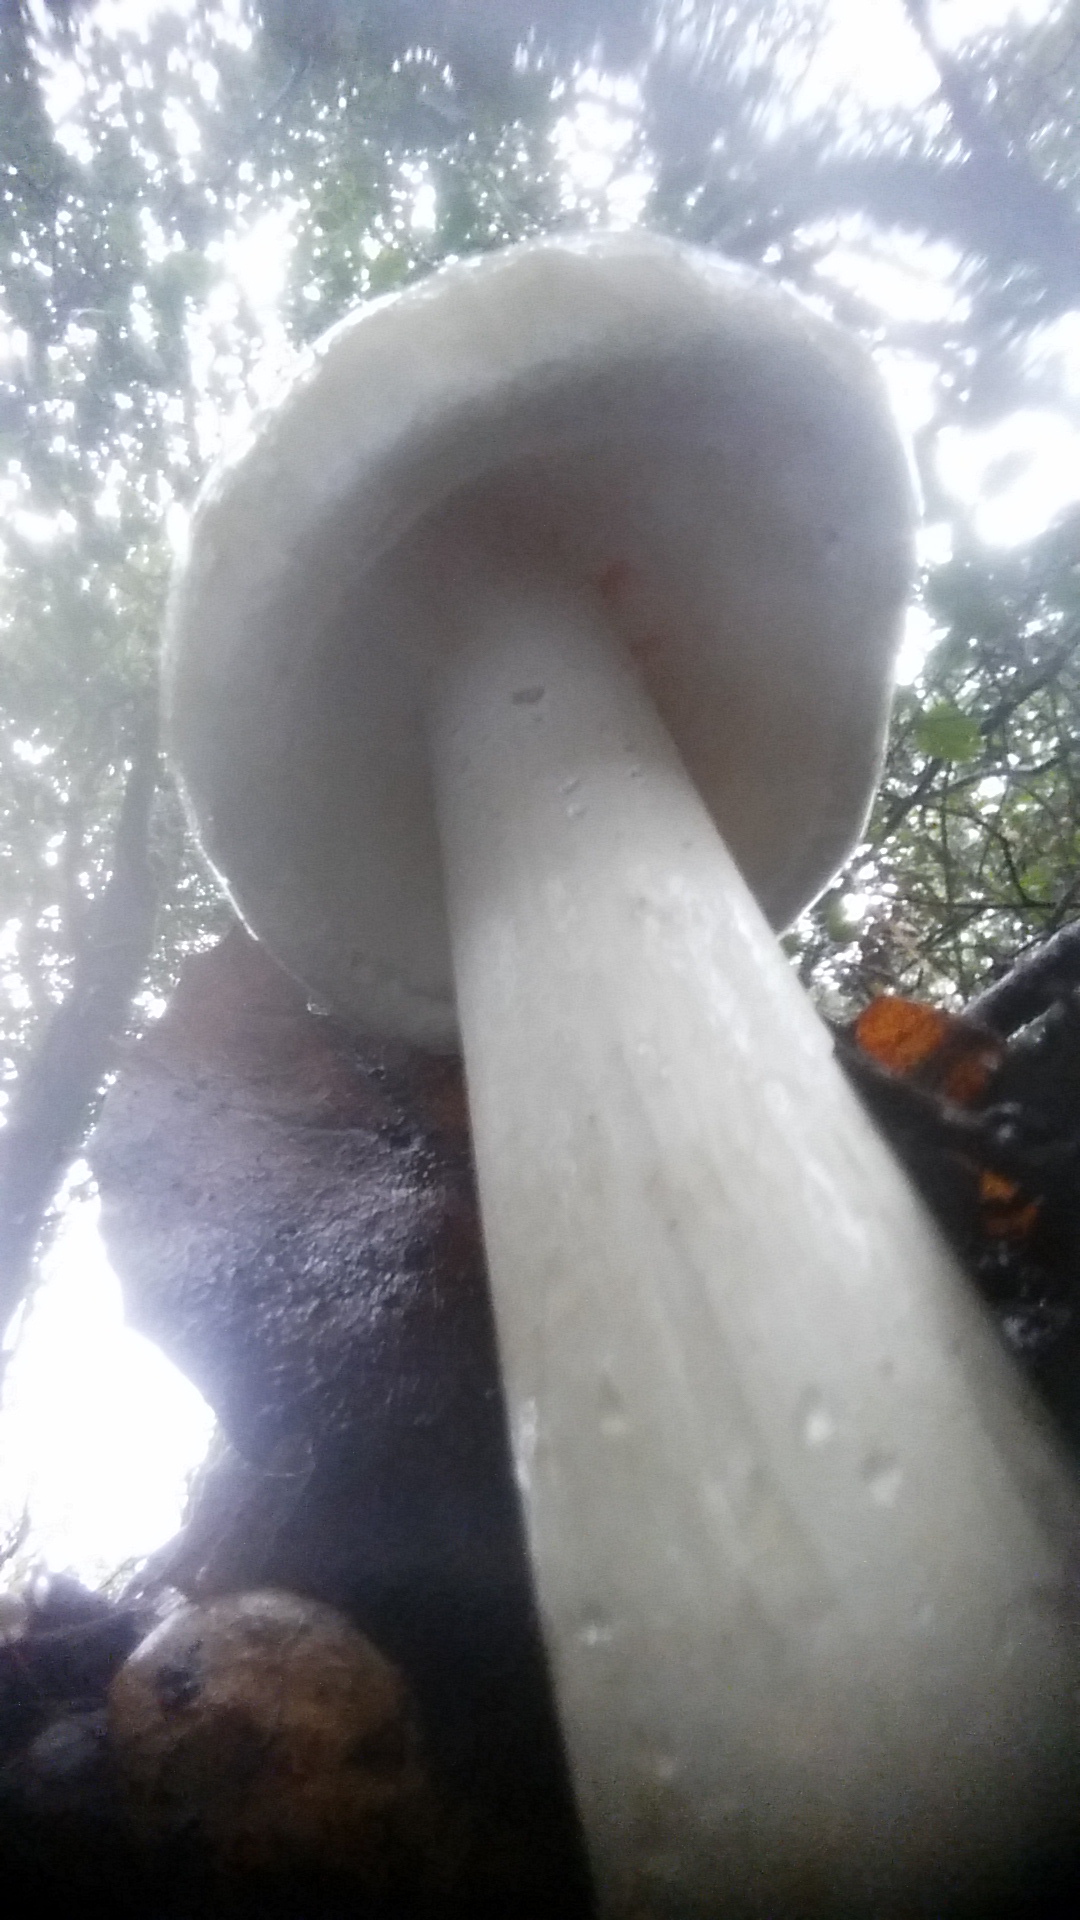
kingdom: Fungi
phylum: Basidiomycota
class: Agaricomycetes
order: Agaricales
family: Amanitaceae
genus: Amanita
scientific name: Amanita phalloides
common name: Death cap
